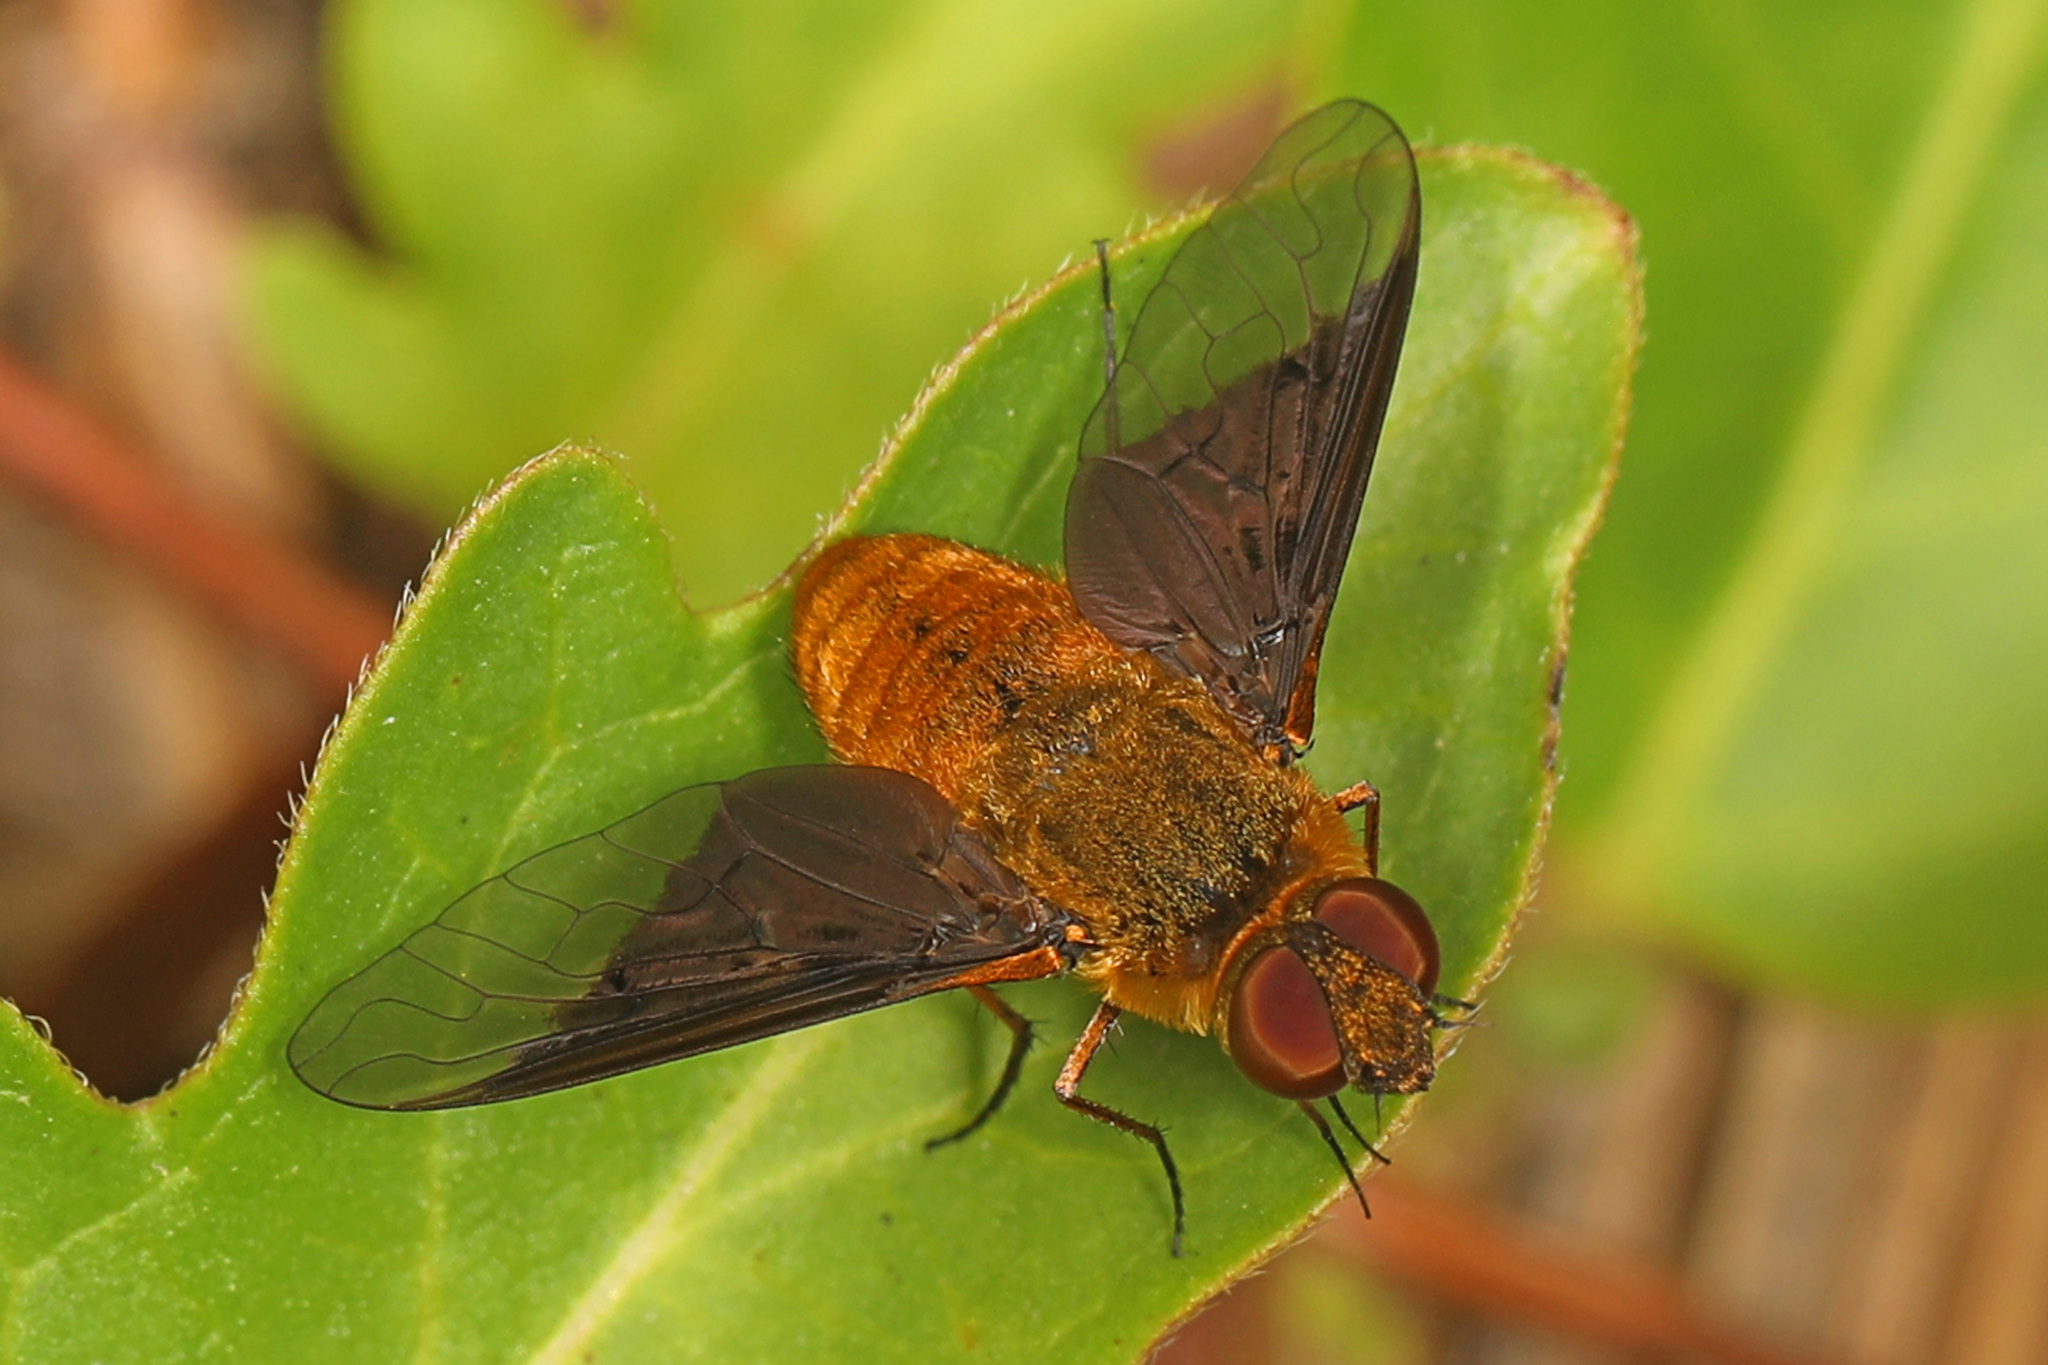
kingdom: Animalia
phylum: Arthropoda
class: Insecta
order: Diptera
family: Bombyliidae
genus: Chrysanthrax
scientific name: Chrysanthrax cypris
